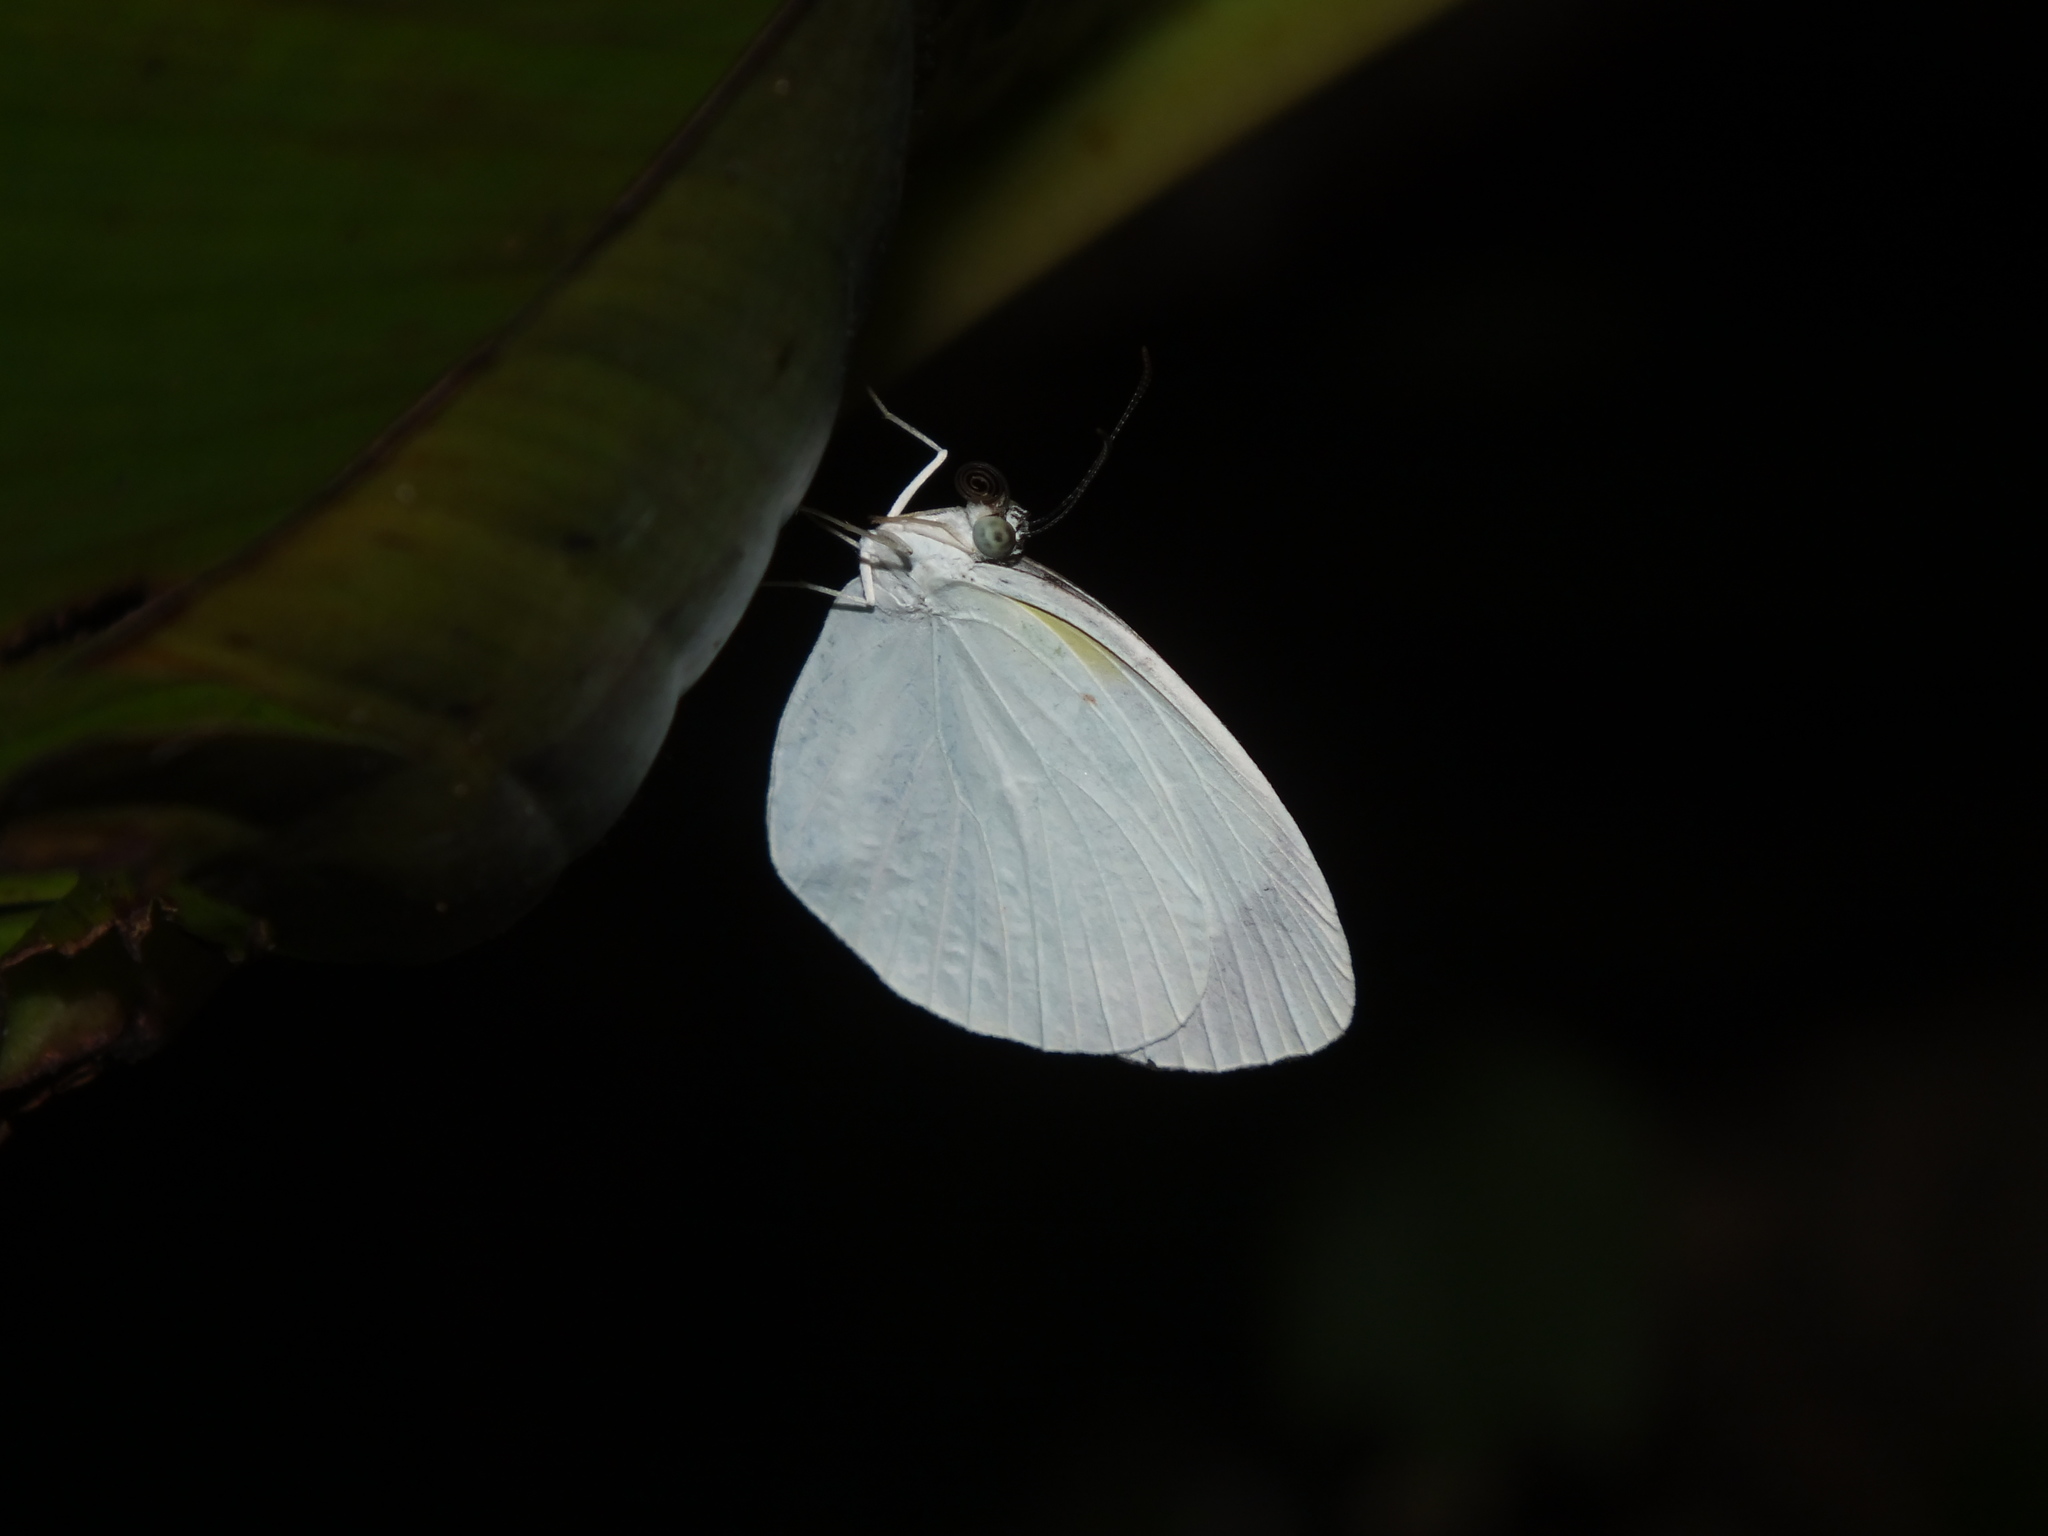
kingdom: Animalia
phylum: Arthropoda
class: Insecta
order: Lepidoptera
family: Pieridae
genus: Abaeis
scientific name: Abaeis albula
